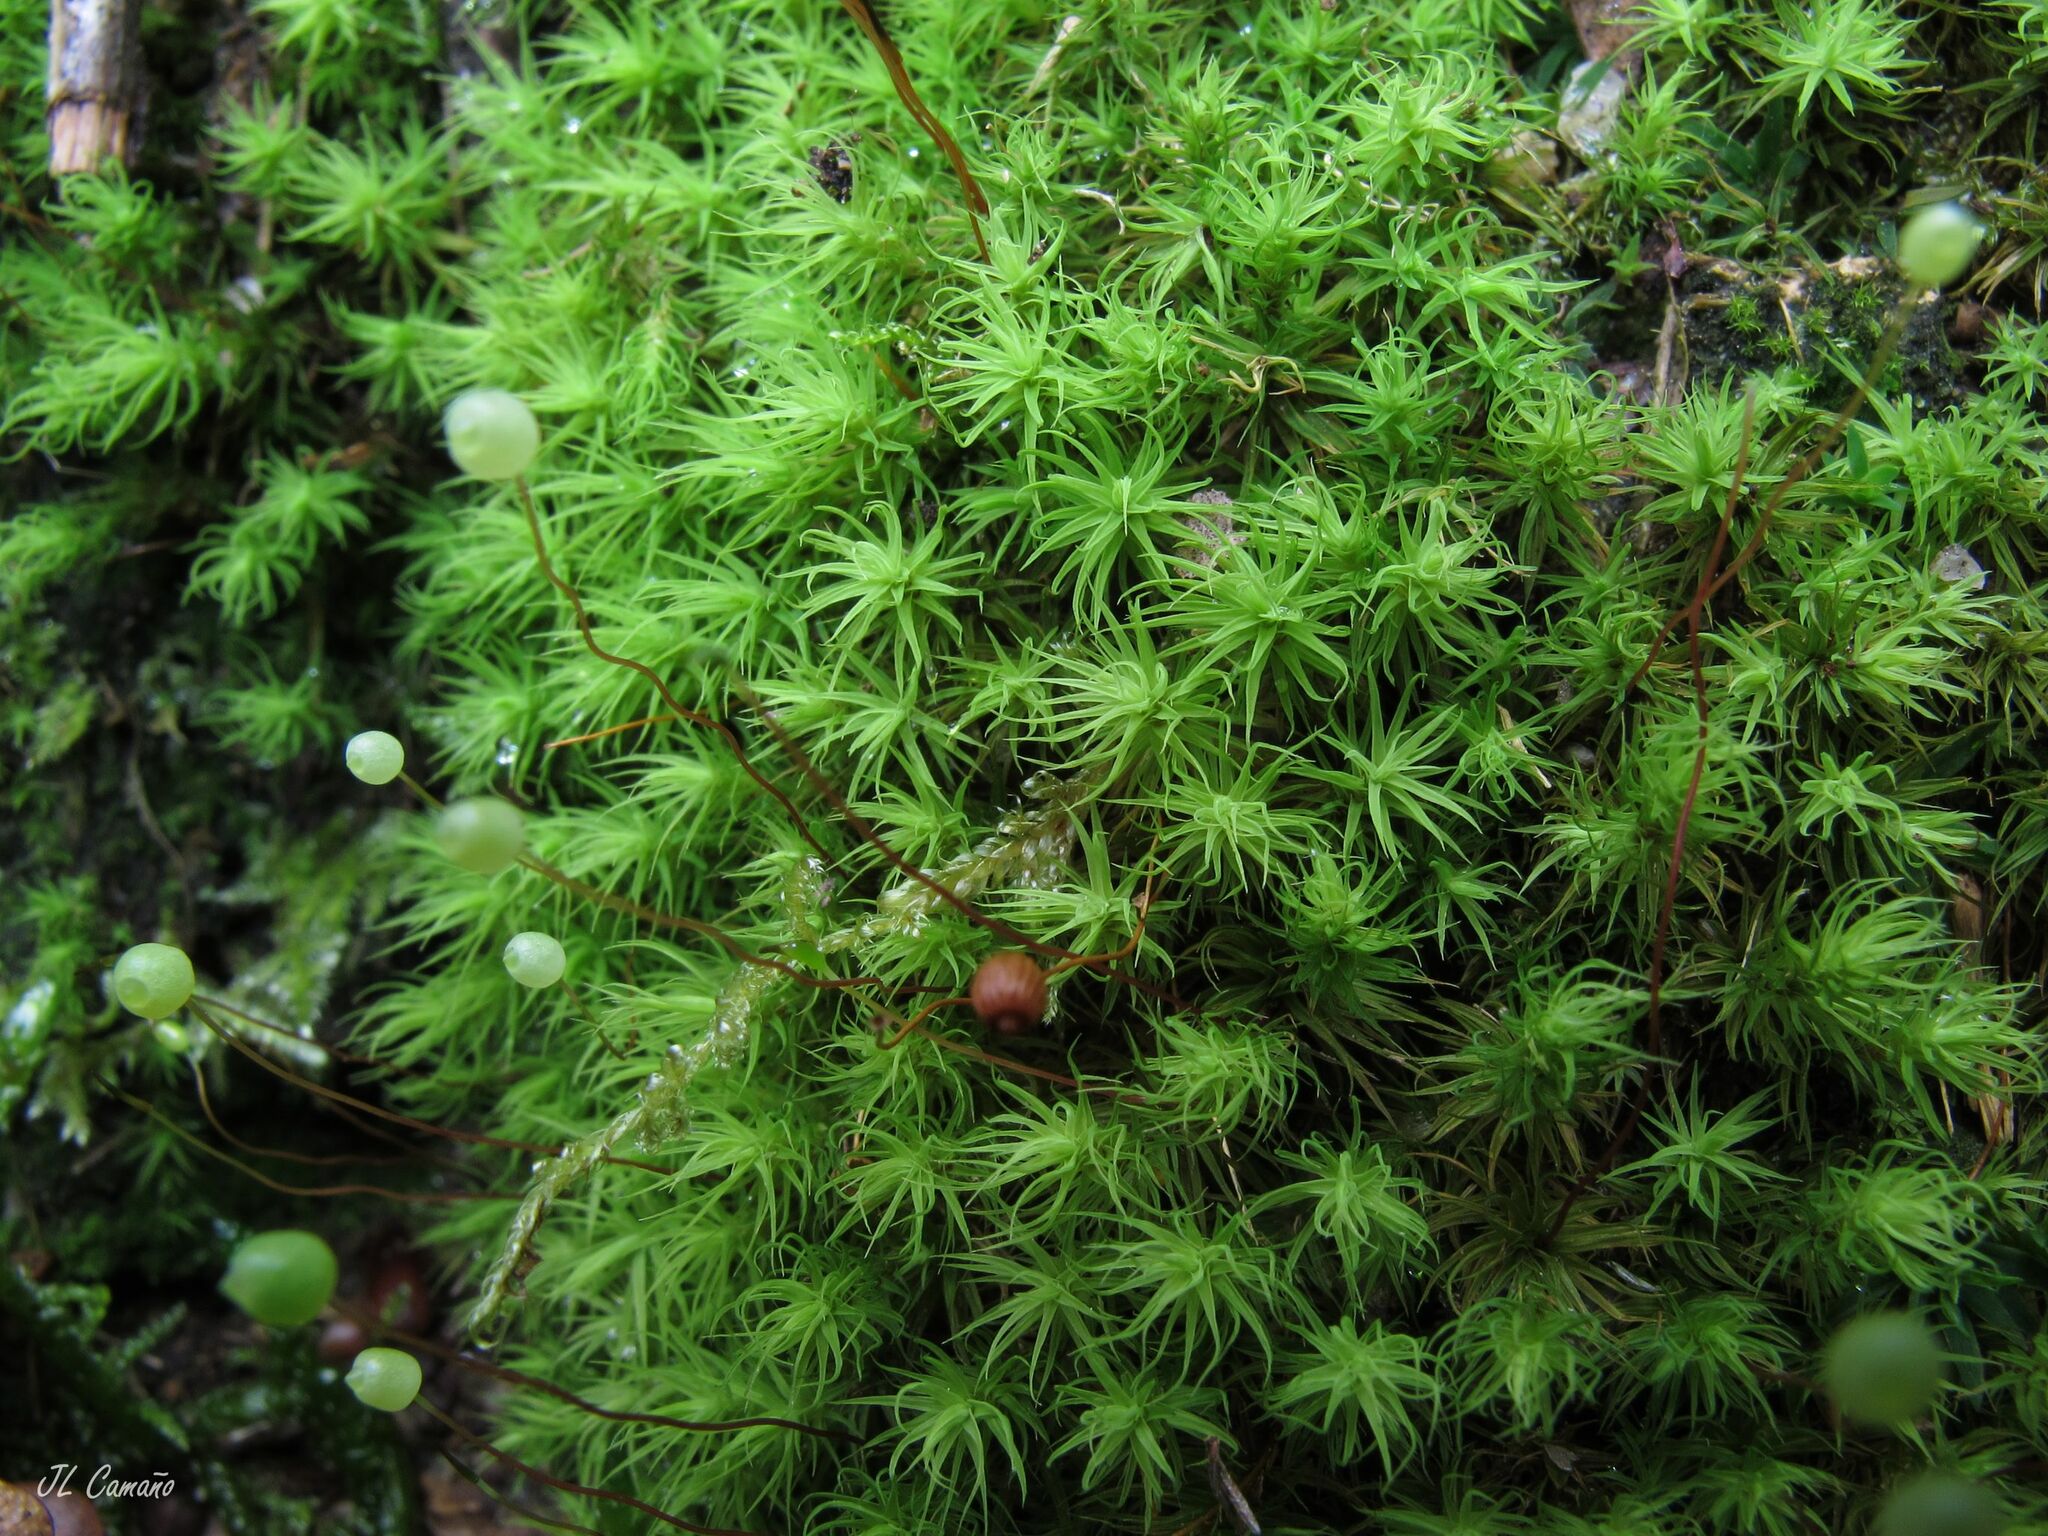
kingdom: Plantae
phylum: Bryophyta
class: Bryopsida
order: Bartramiales
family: Bartramiaceae
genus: Bartramia
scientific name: Bartramia ithyphylla
